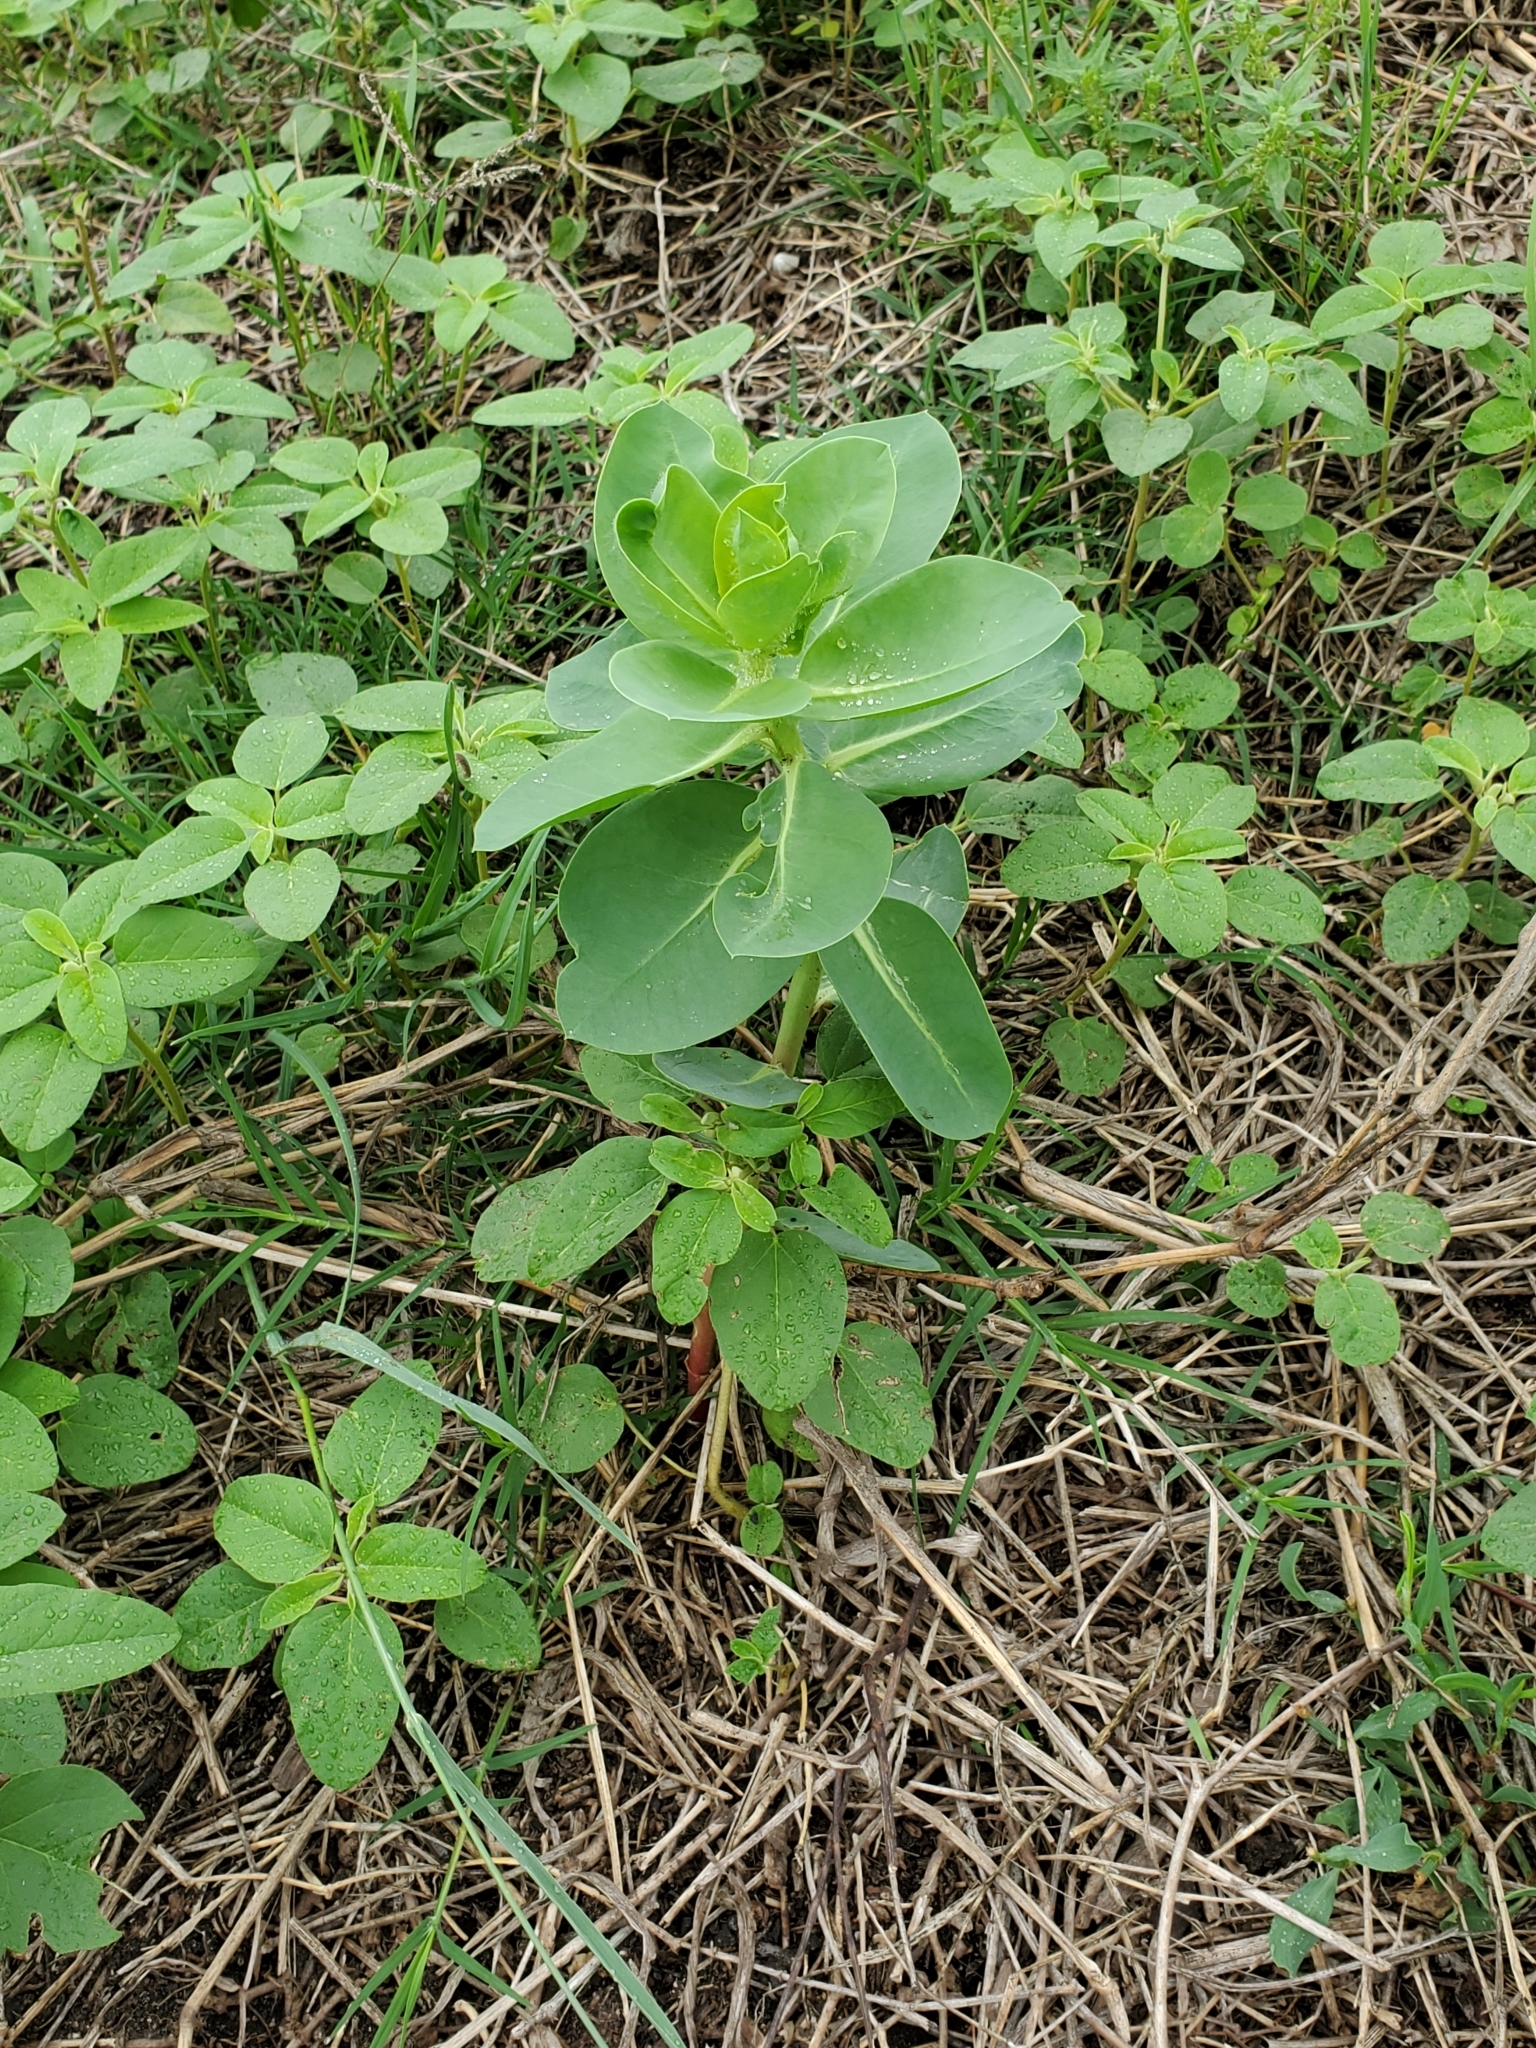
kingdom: Plantae
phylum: Tracheophyta
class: Magnoliopsida
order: Malpighiales
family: Euphorbiaceae
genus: Euphorbia
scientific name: Euphorbia marginata
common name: Ghostweed
